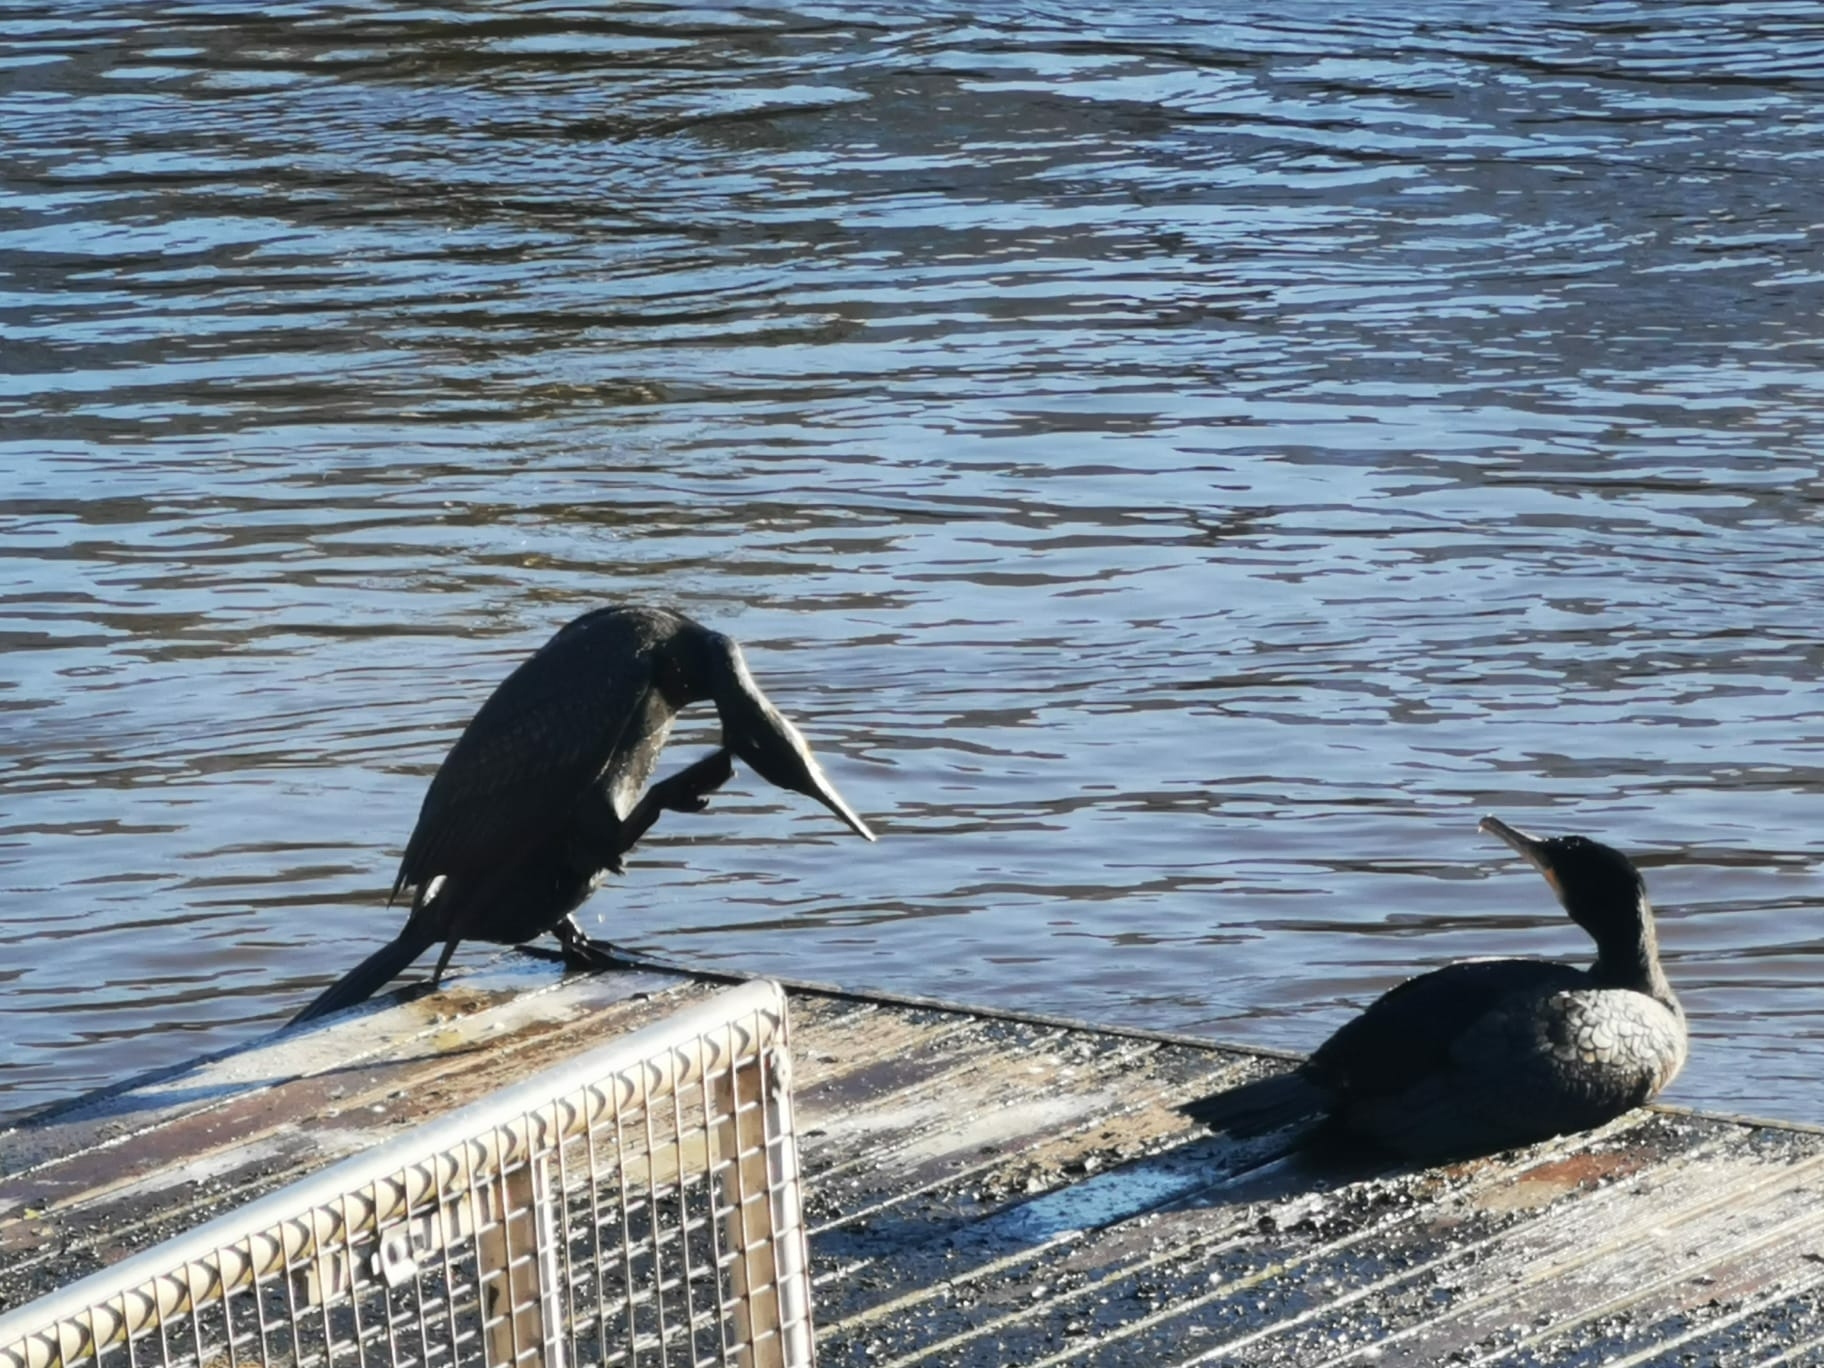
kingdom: Animalia
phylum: Chordata
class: Aves
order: Suliformes
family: Phalacrocoracidae
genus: Phalacrocorax
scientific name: Phalacrocorax carbo
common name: Great cormorant
